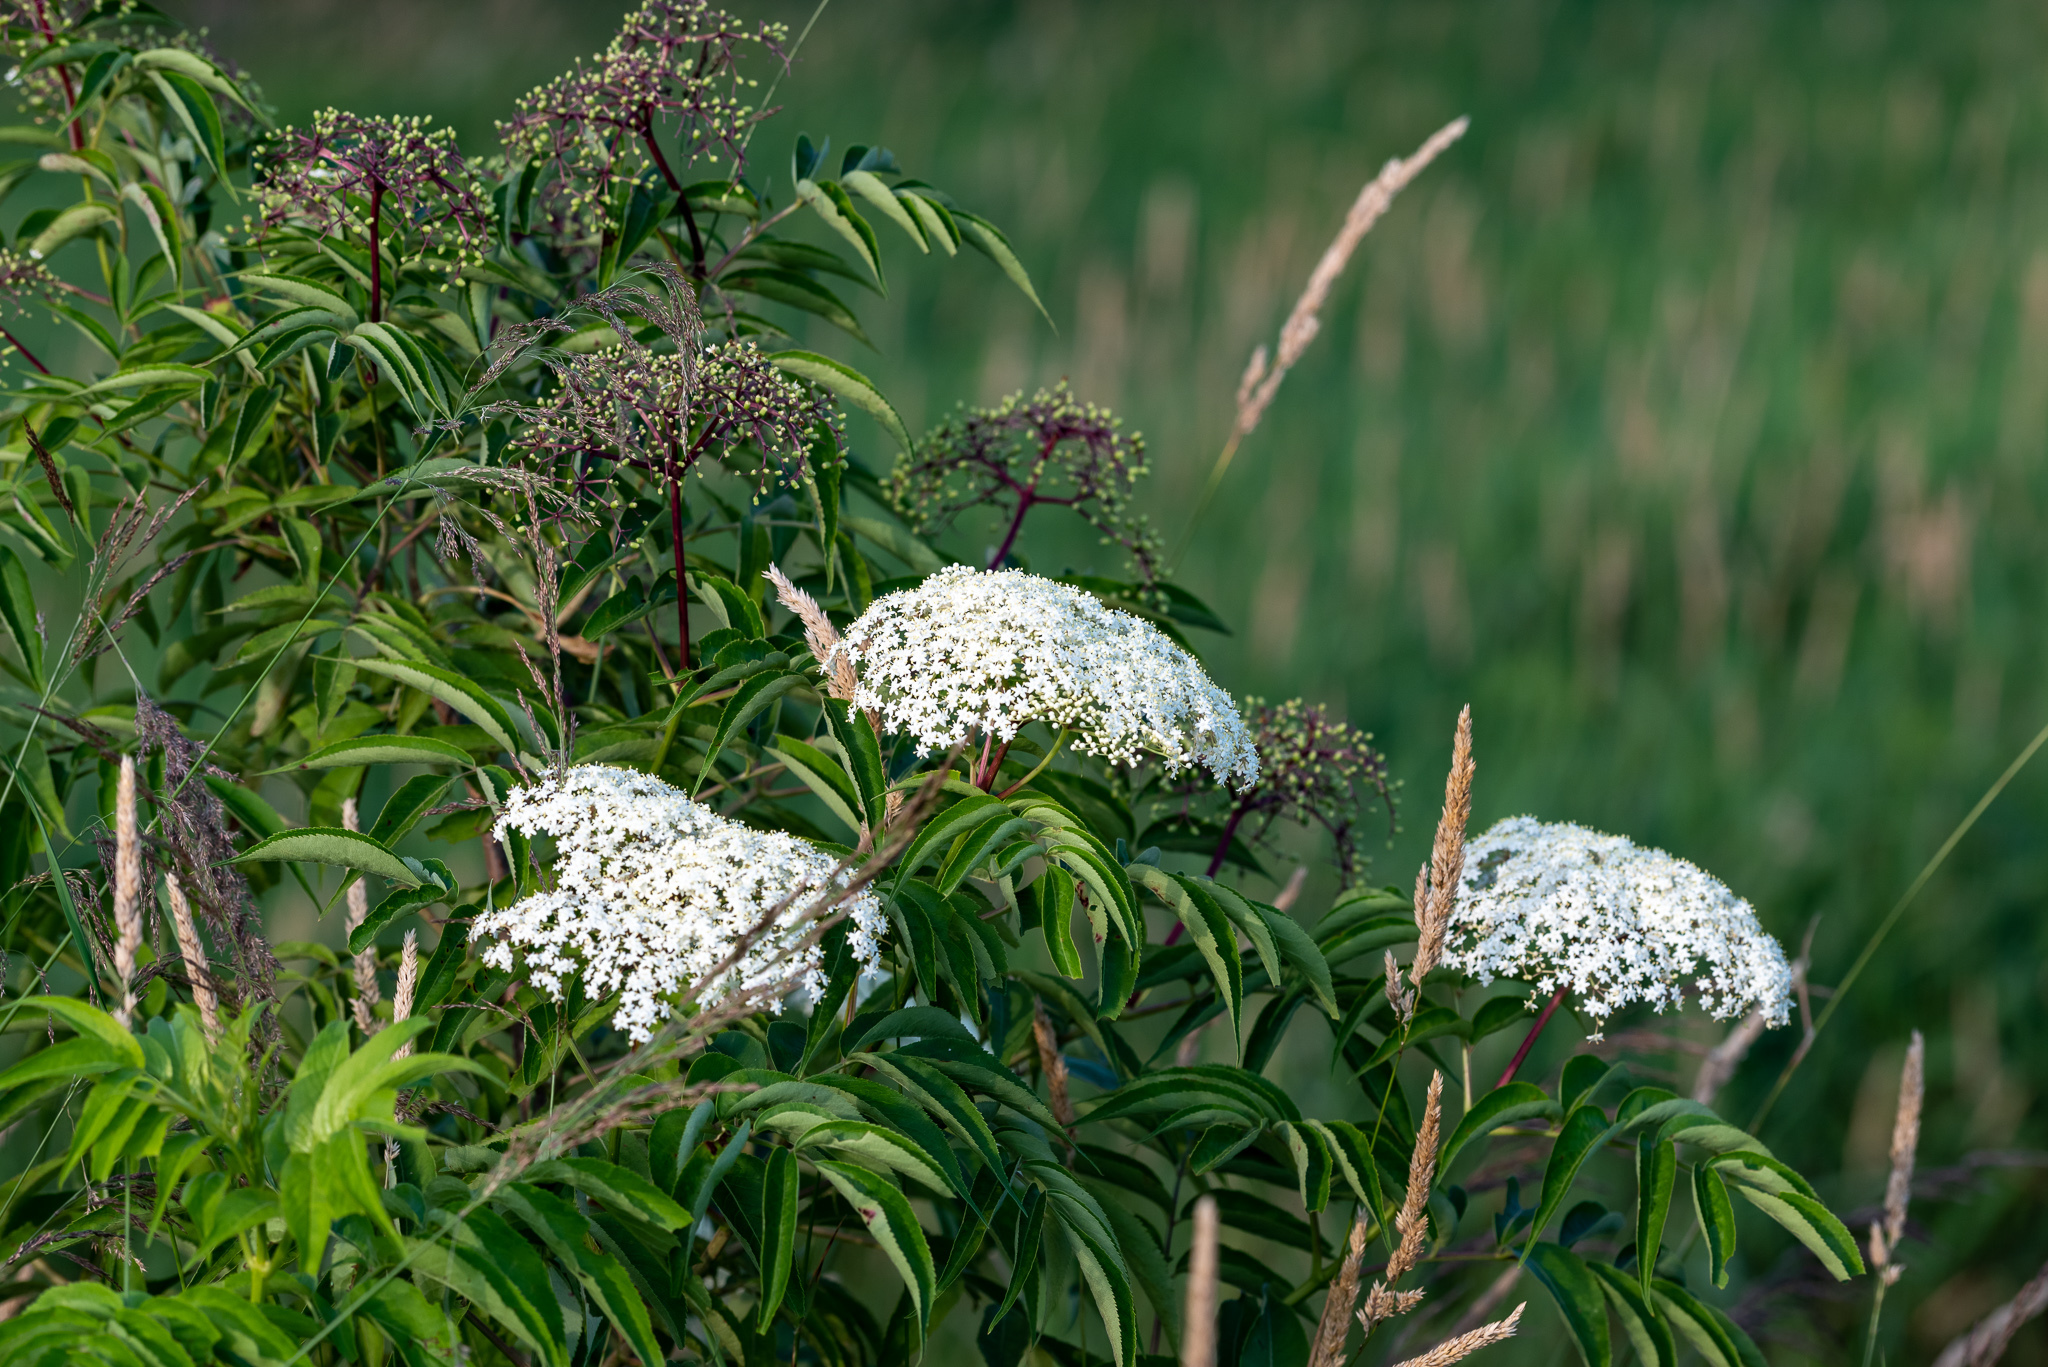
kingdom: Plantae
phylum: Tracheophyta
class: Magnoliopsida
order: Dipsacales
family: Viburnaceae
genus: Sambucus
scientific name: Sambucus canadensis
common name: American elder
